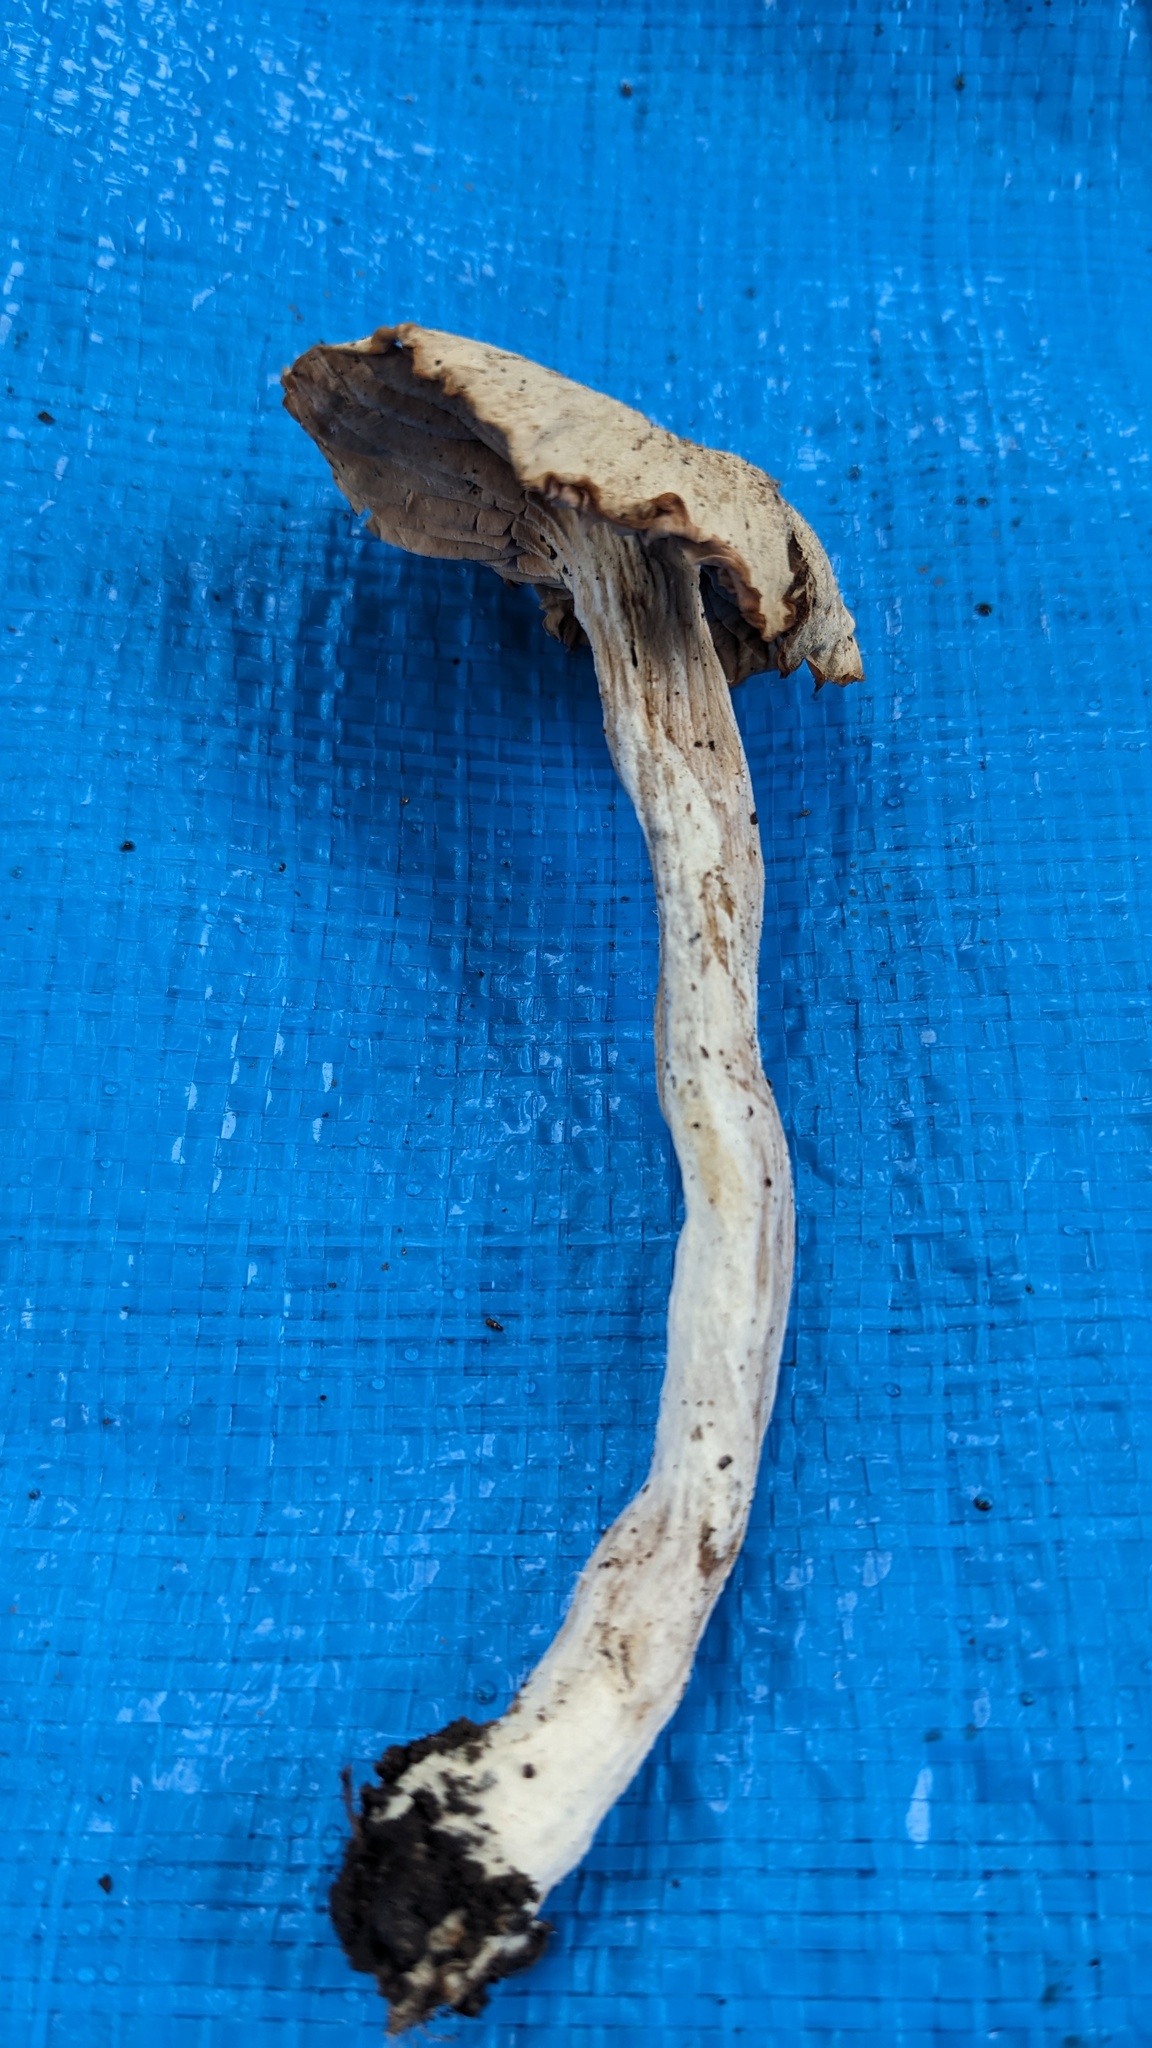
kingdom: Fungi
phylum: Basidiomycota
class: Agaricomycetes
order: Agaricales
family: Hydnangiaceae
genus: Laccaria
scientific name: Laccaria vinaceoavellanea
